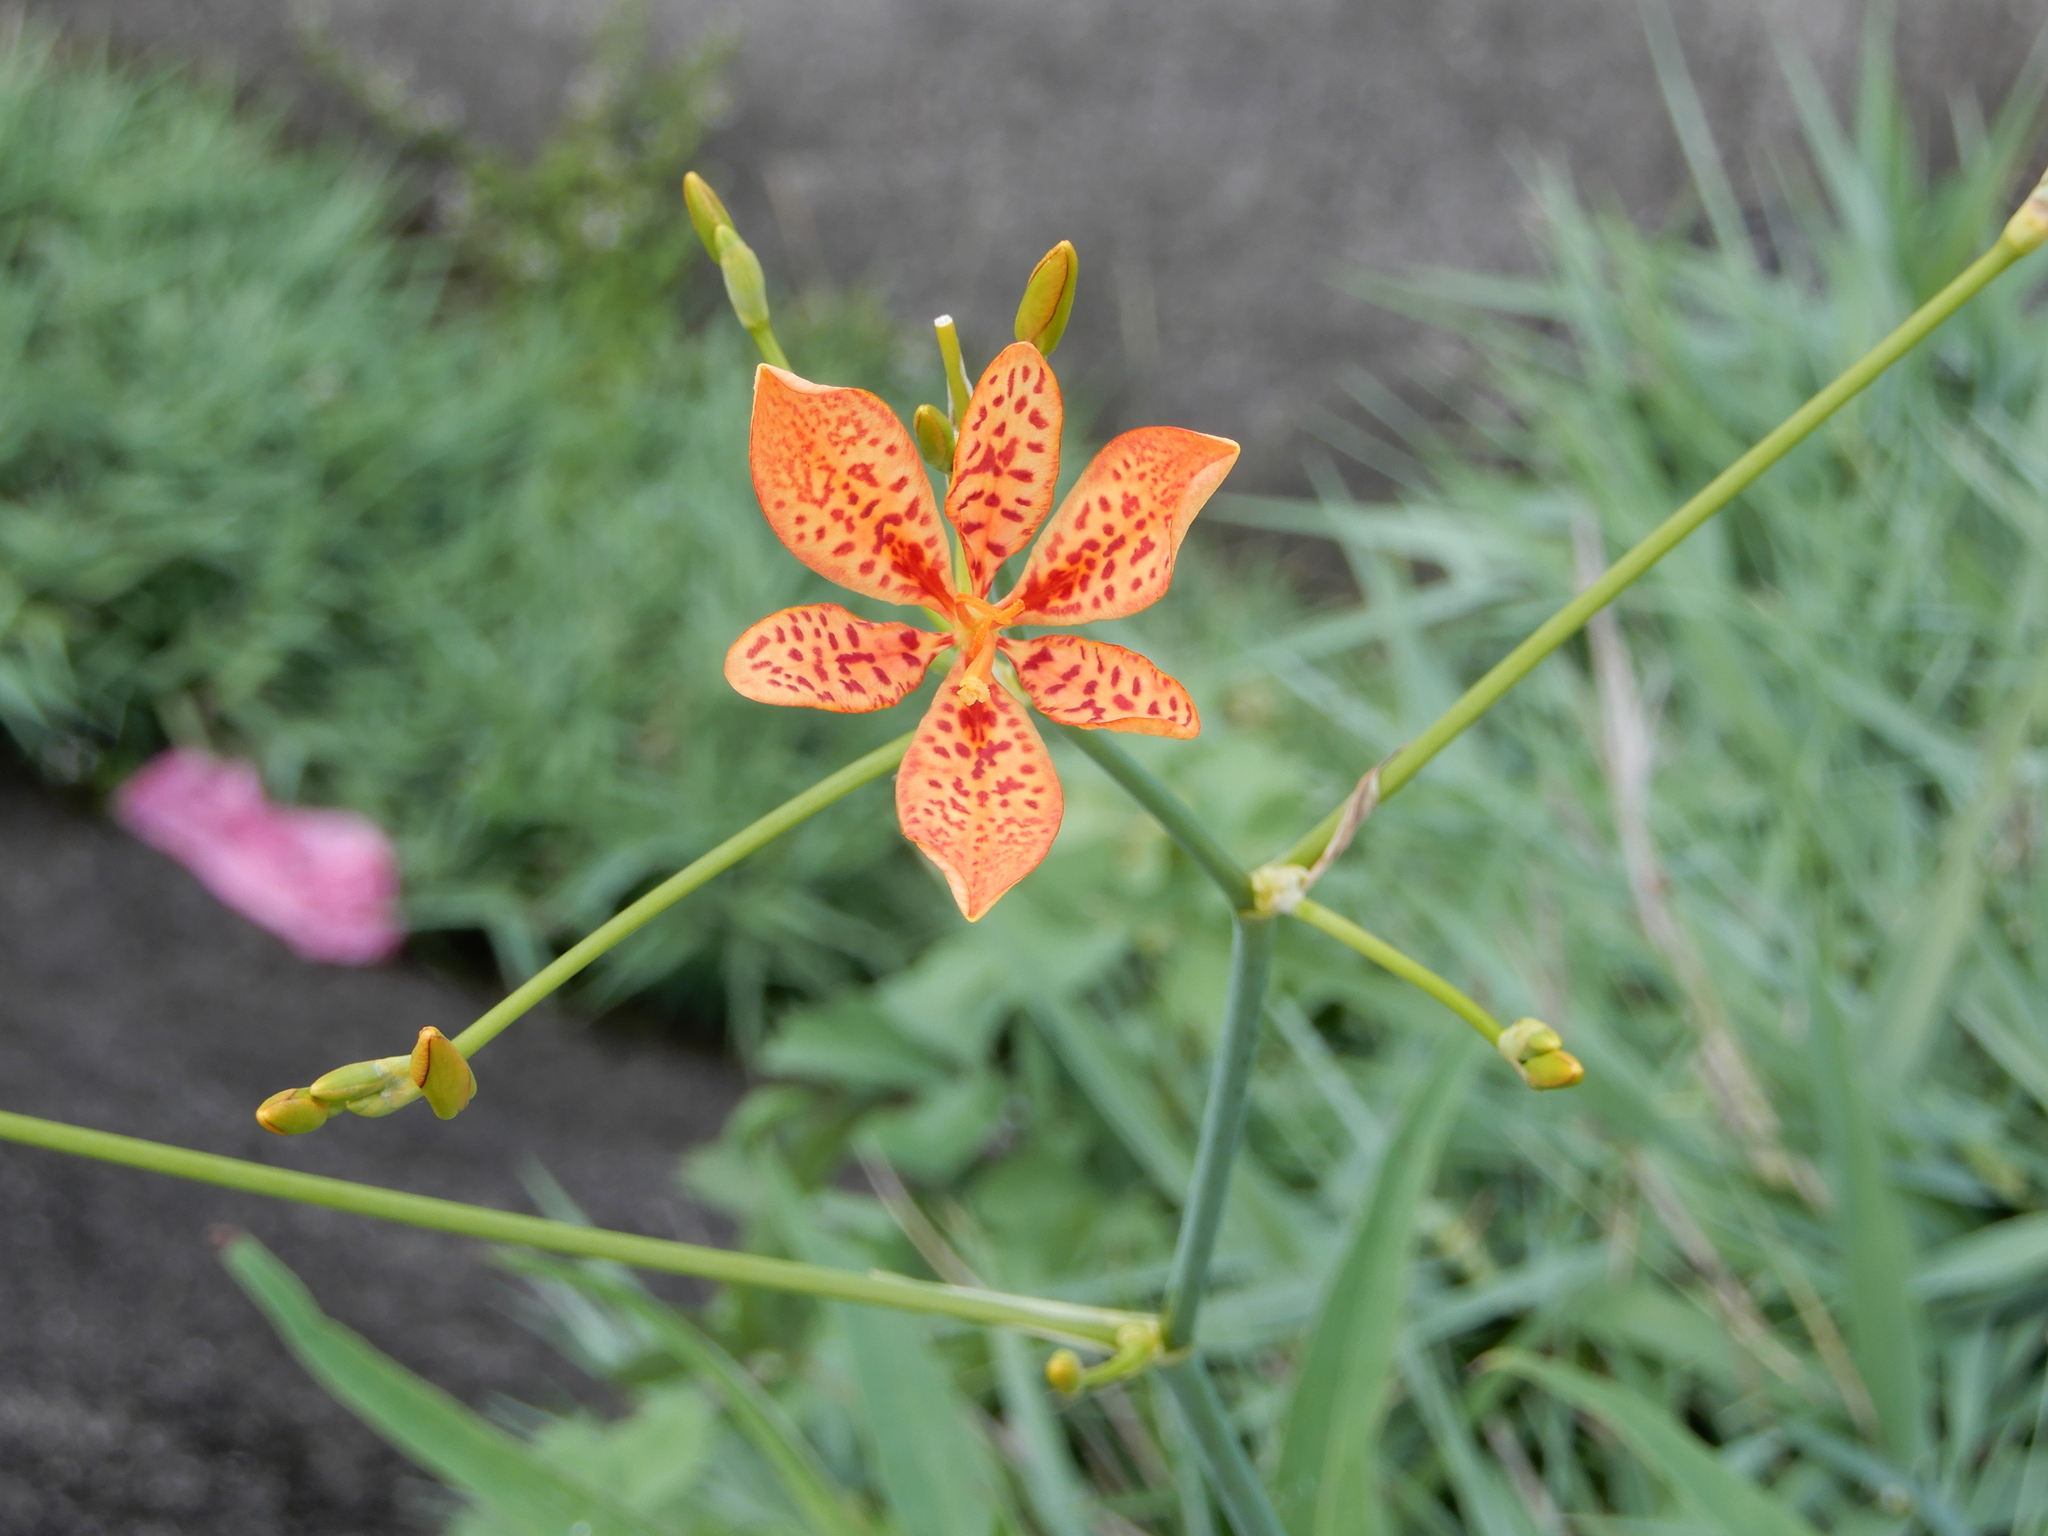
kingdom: Plantae
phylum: Tracheophyta
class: Liliopsida
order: Asparagales
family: Iridaceae
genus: Iris
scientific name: Iris domestica
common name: Belamcanda
